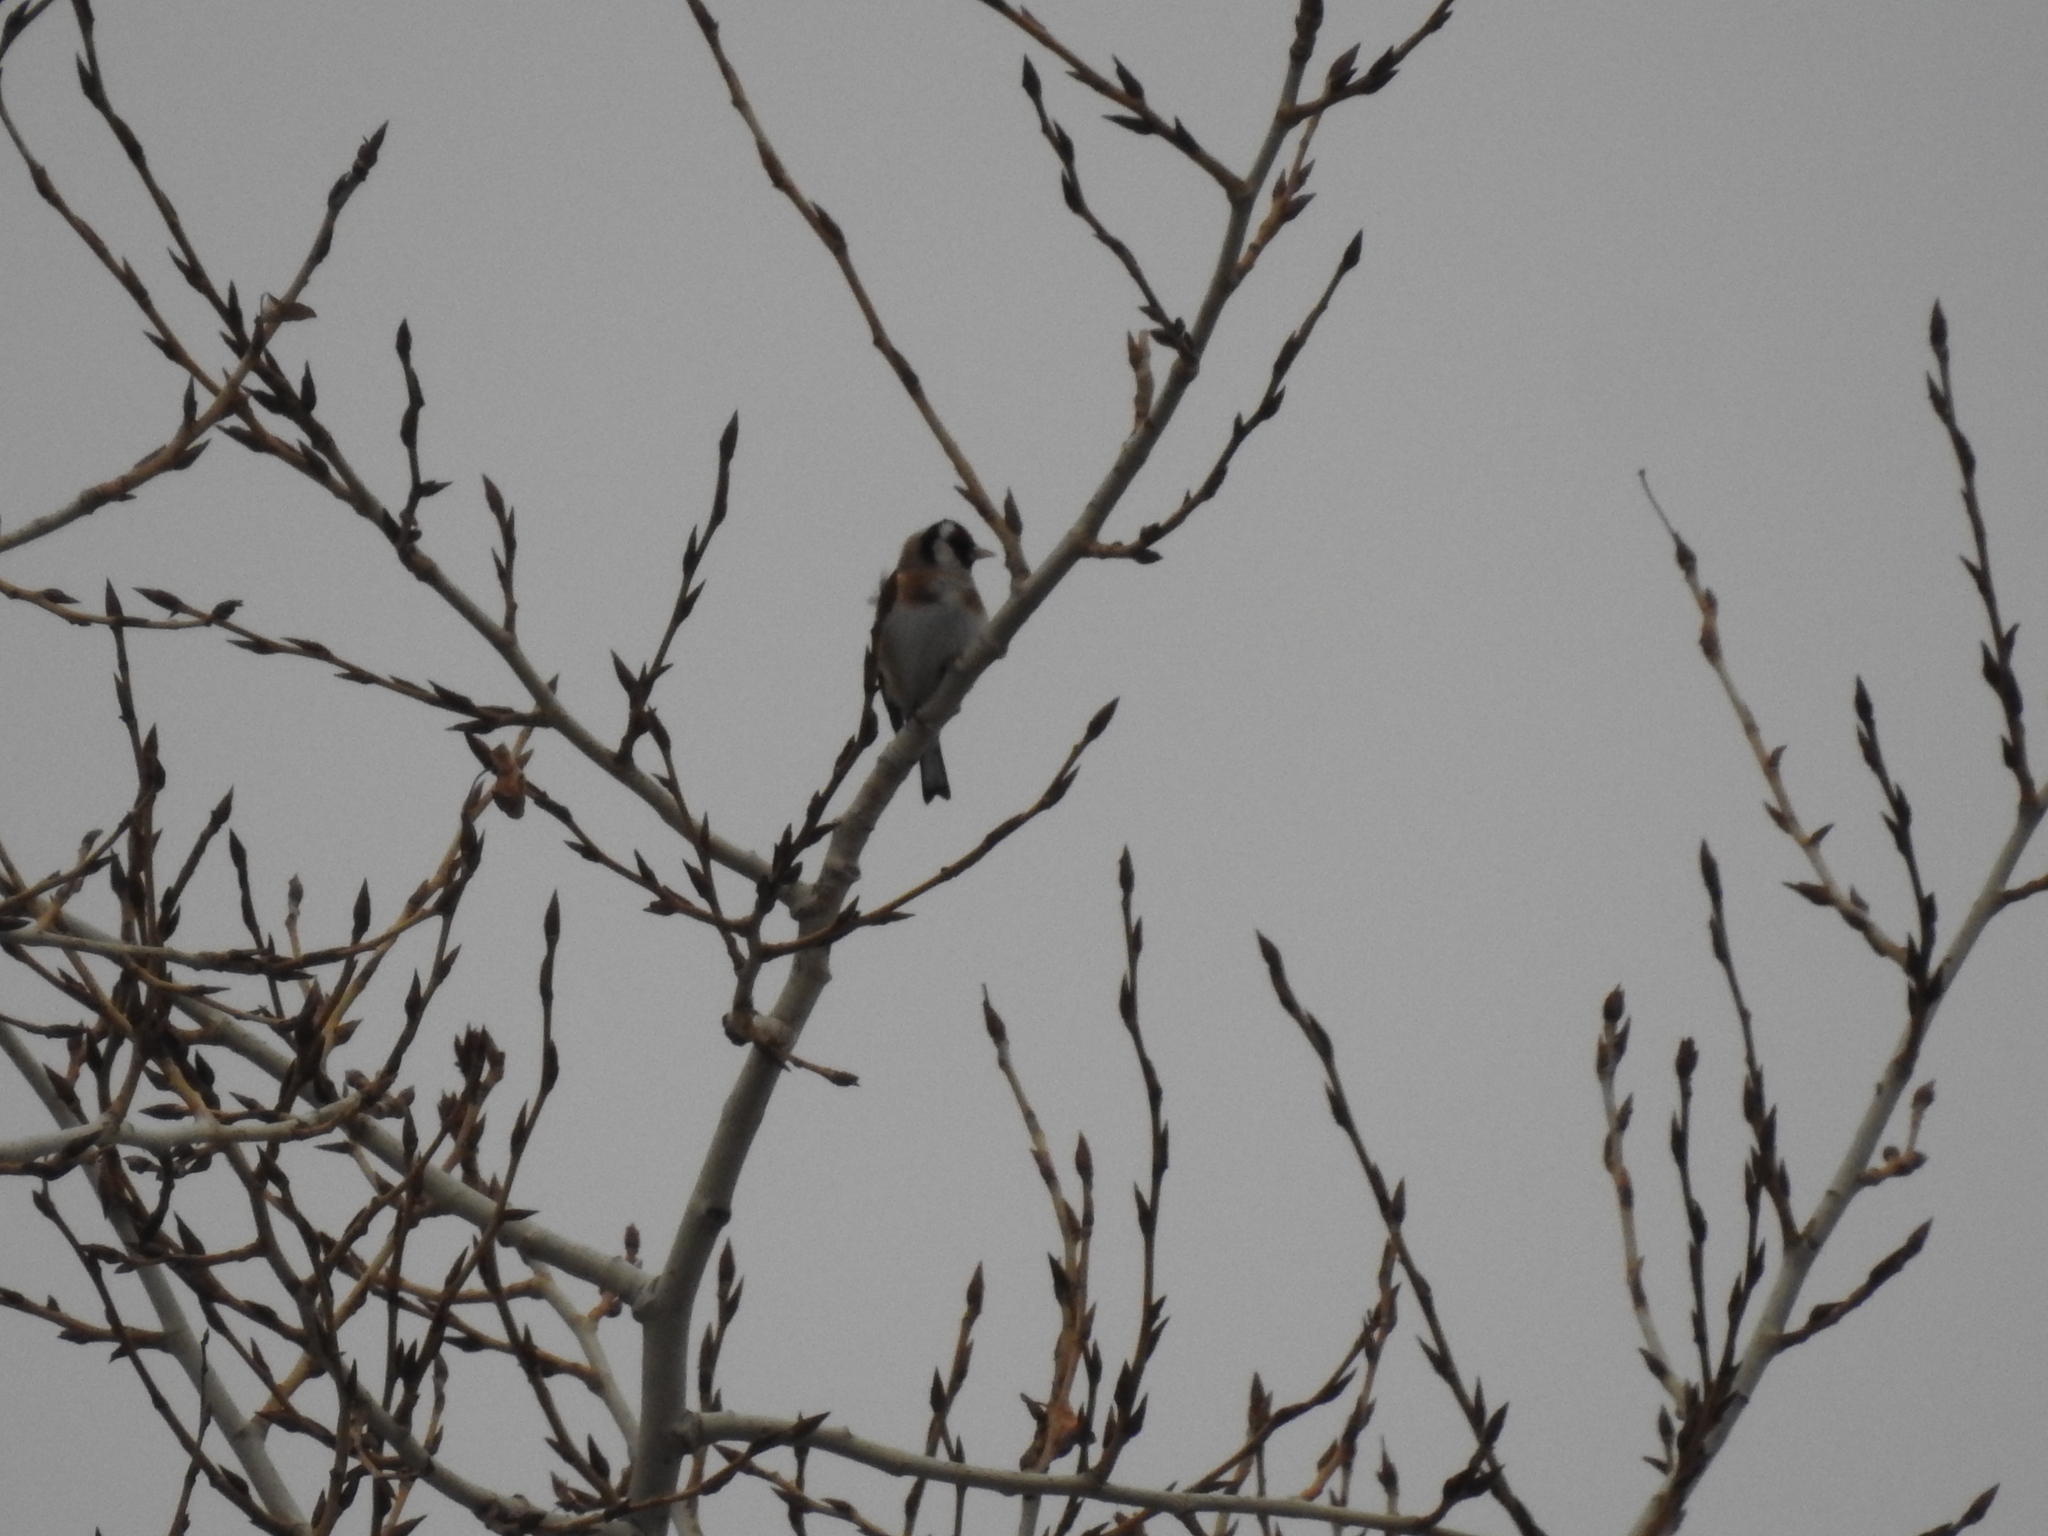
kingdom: Animalia
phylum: Chordata
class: Aves
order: Passeriformes
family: Fringillidae
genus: Carduelis
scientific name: Carduelis carduelis
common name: European goldfinch
